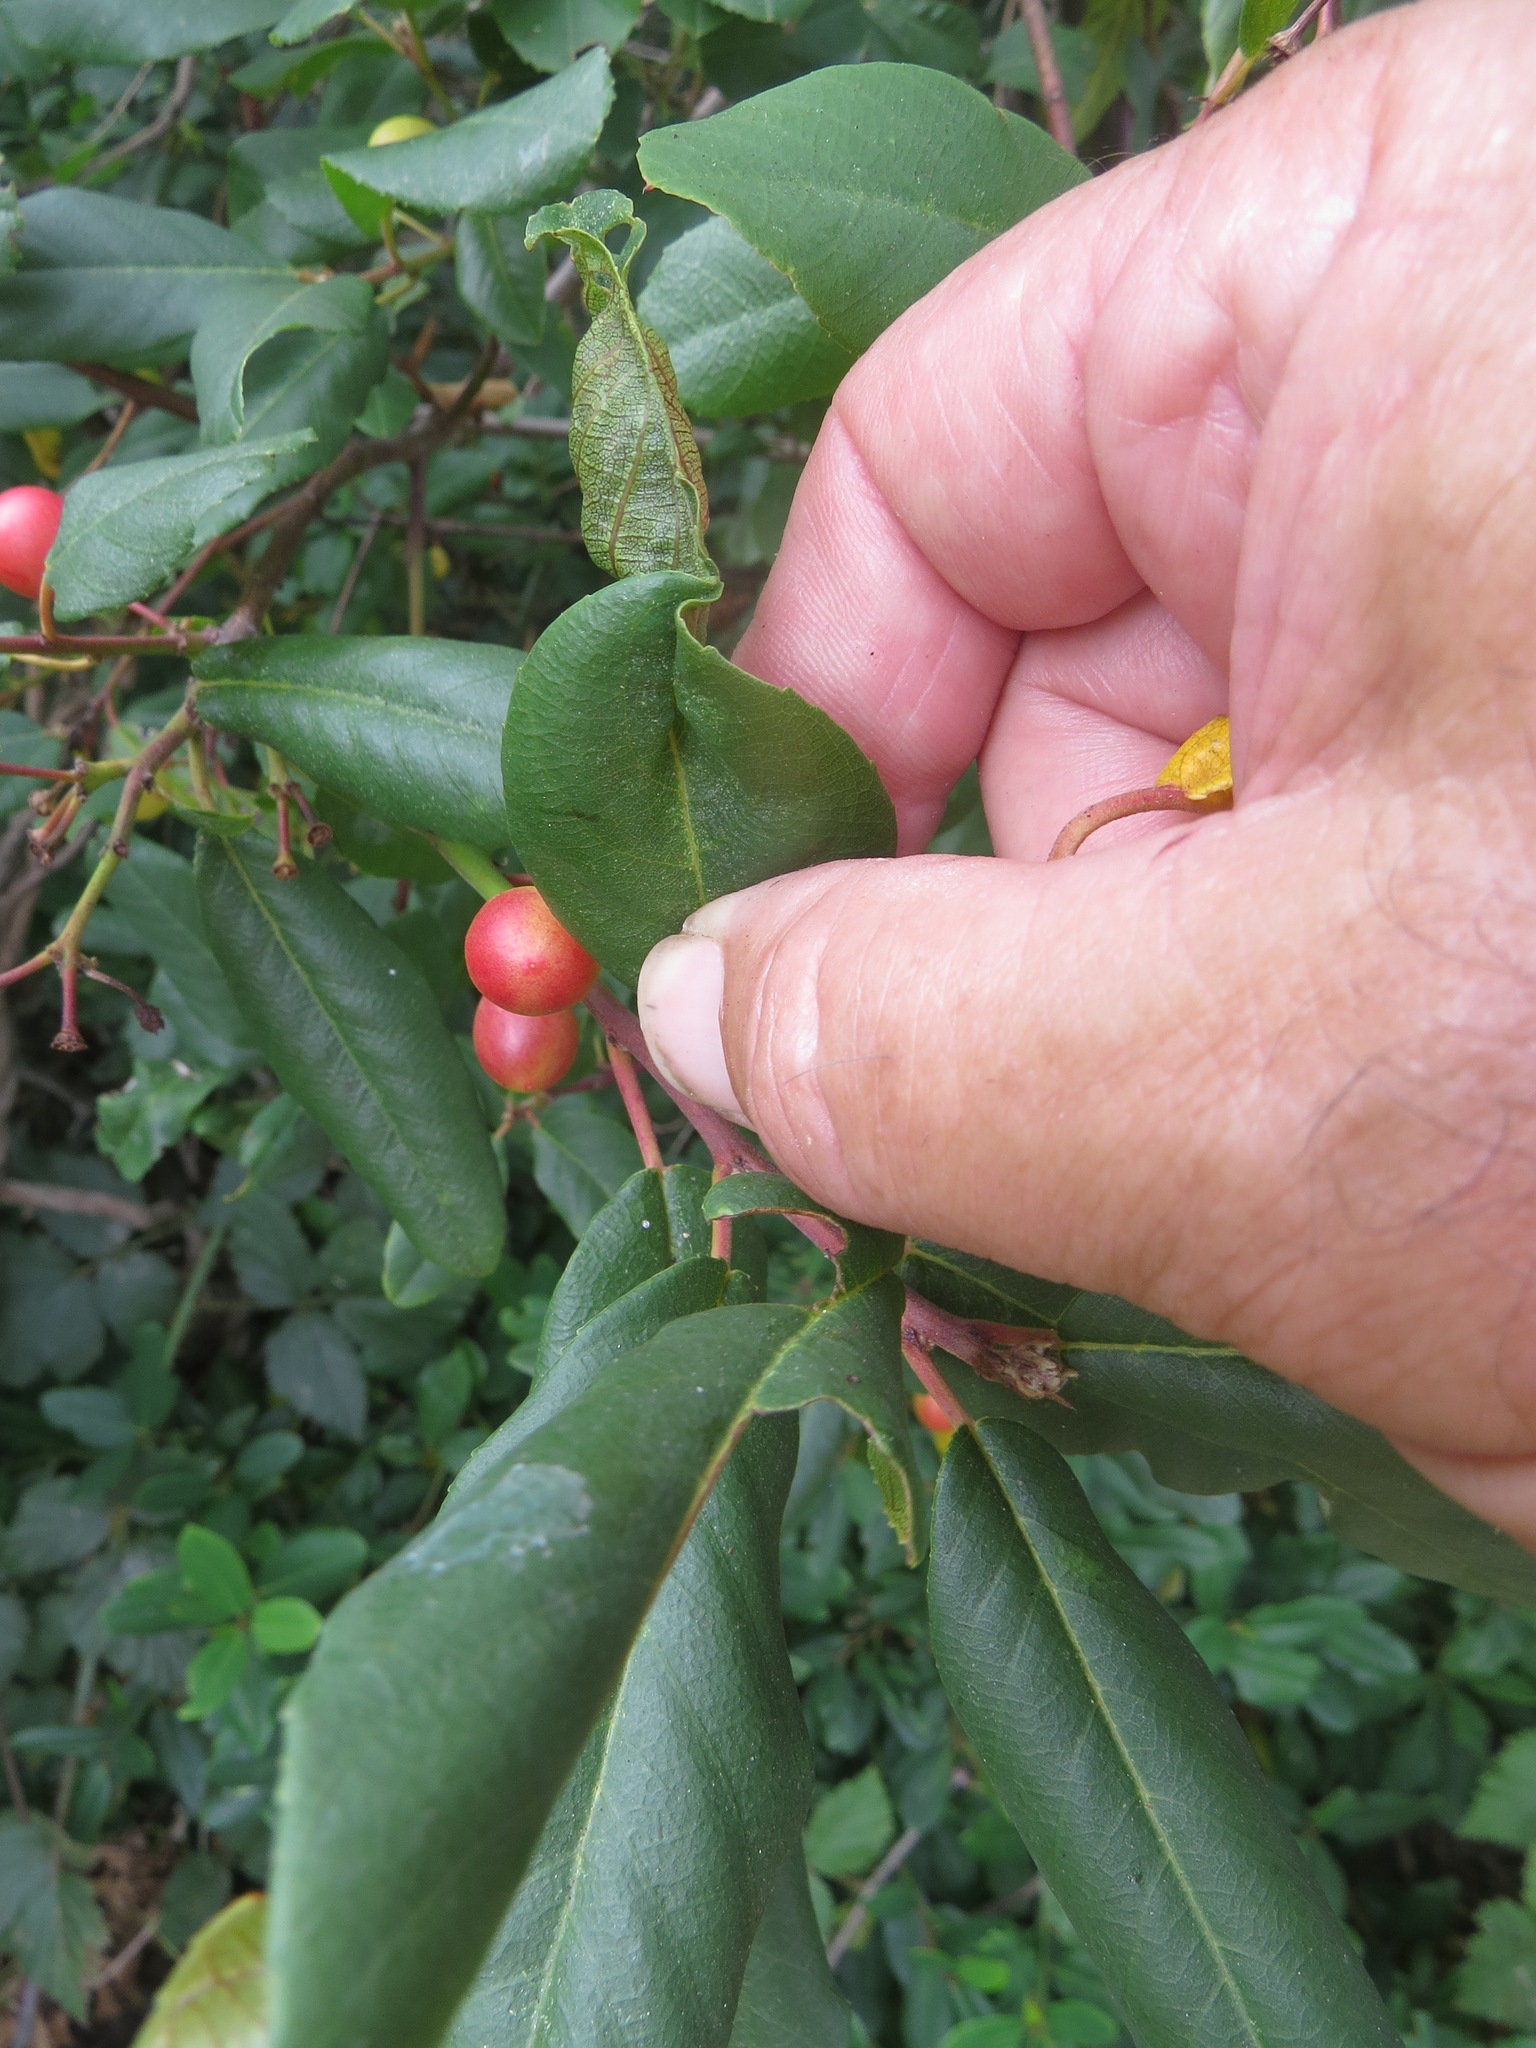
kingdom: Animalia
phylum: Arthropoda
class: Insecta
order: Lepidoptera
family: Cosmopterigidae
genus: Sorhagenia
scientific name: Sorhagenia nimbosus
